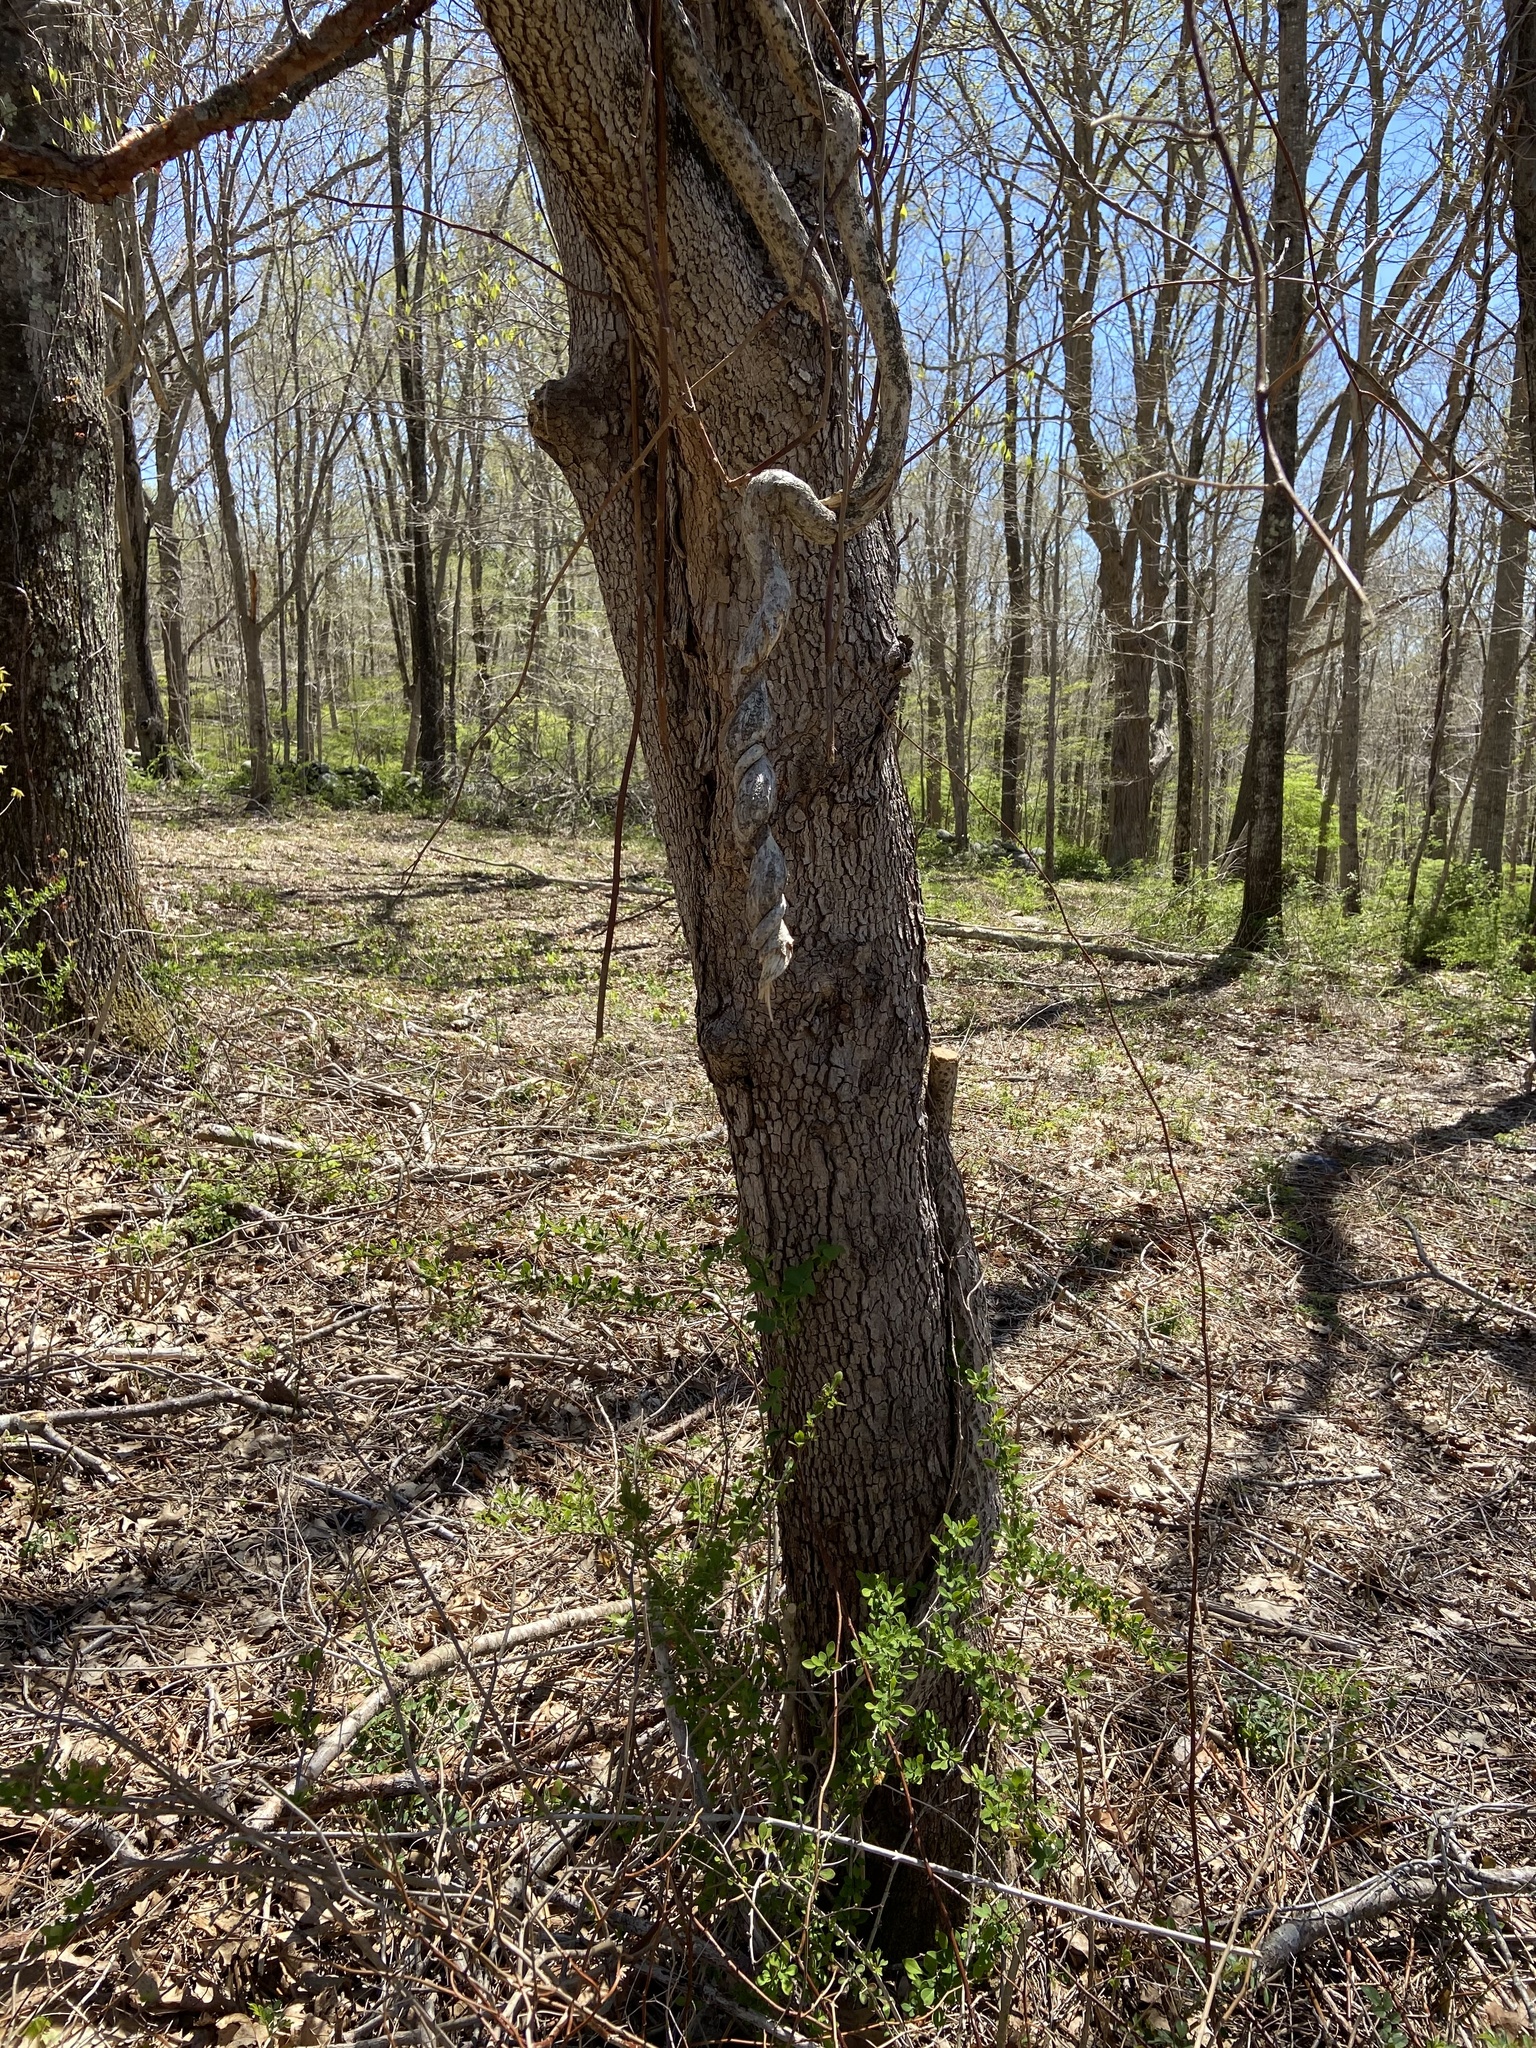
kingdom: Plantae
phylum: Tracheophyta
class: Magnoliopsida
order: Cornales
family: Cornaceae
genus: Cornus
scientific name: Cornus florida
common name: Flowering dogwood
